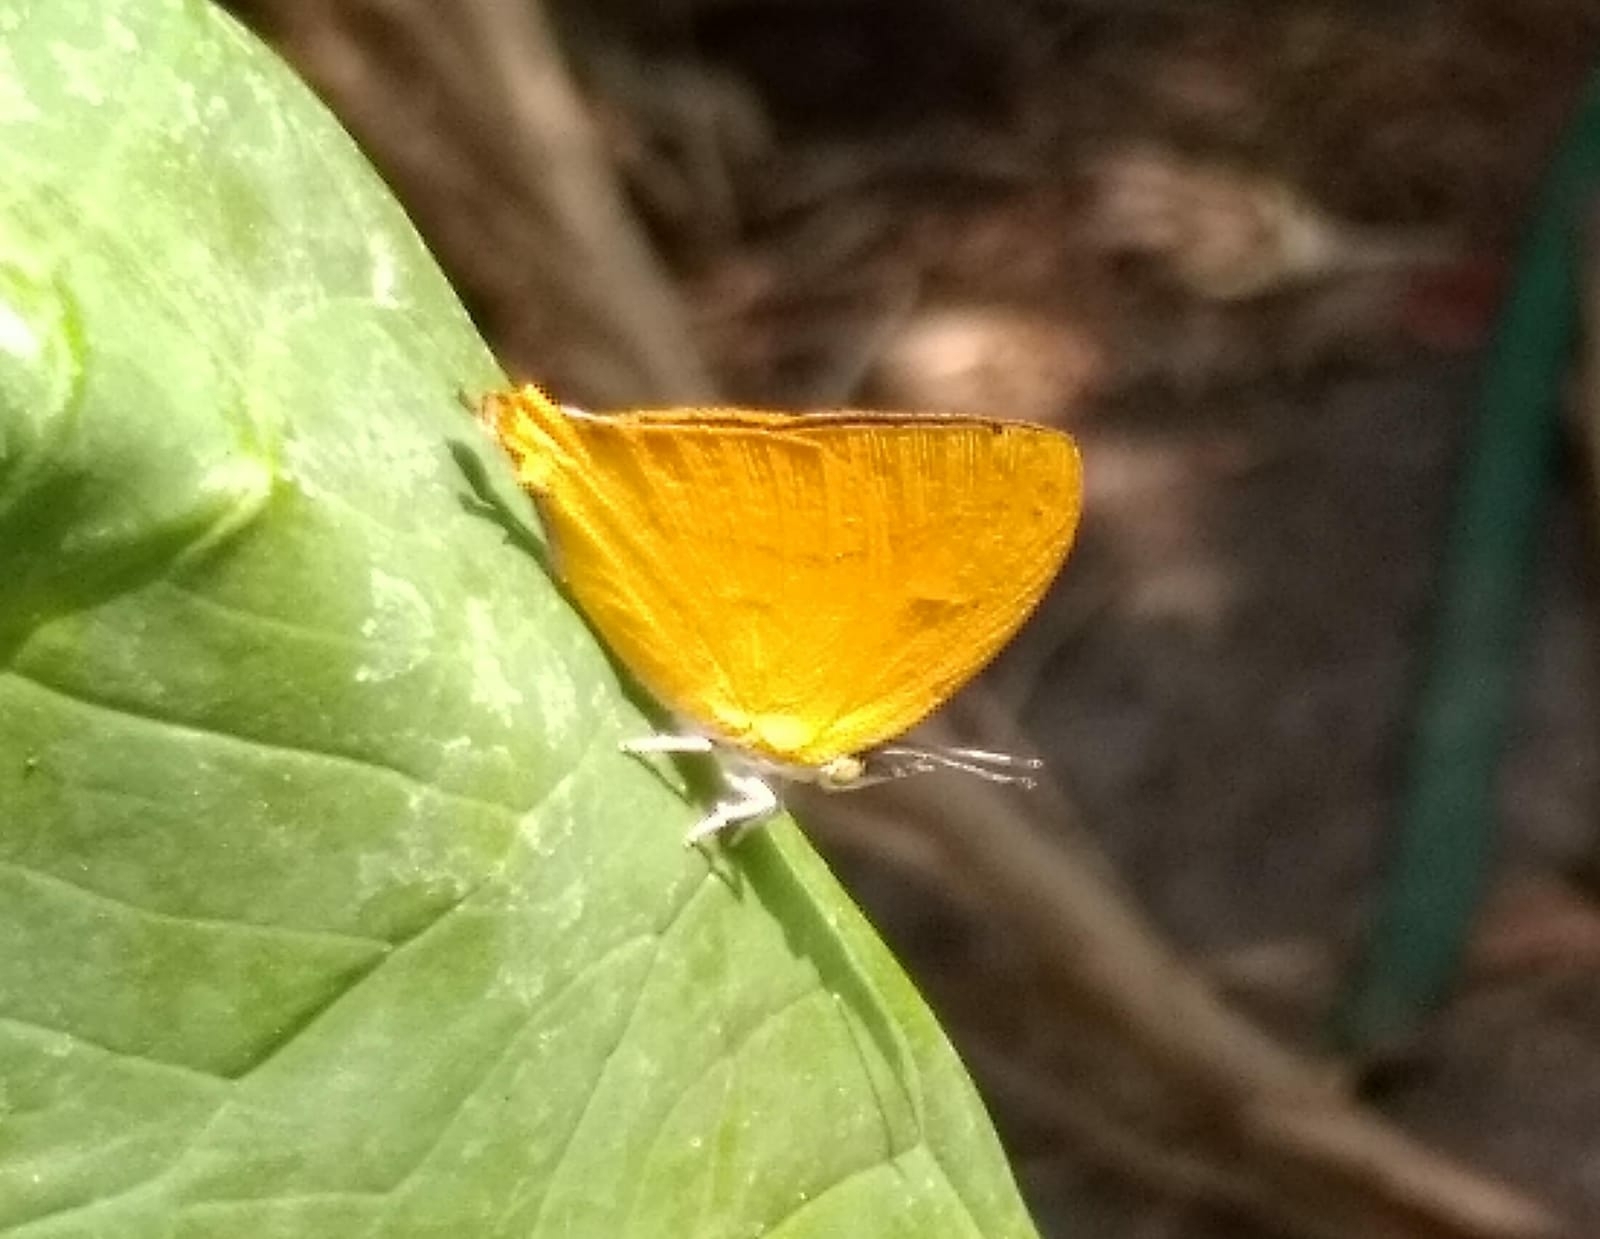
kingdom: Animalia
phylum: Arthropoda
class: Insecta
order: Lepidoptera
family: Lycaenidae
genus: Loxura
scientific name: Loxura atymnus
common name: Common yamfly
